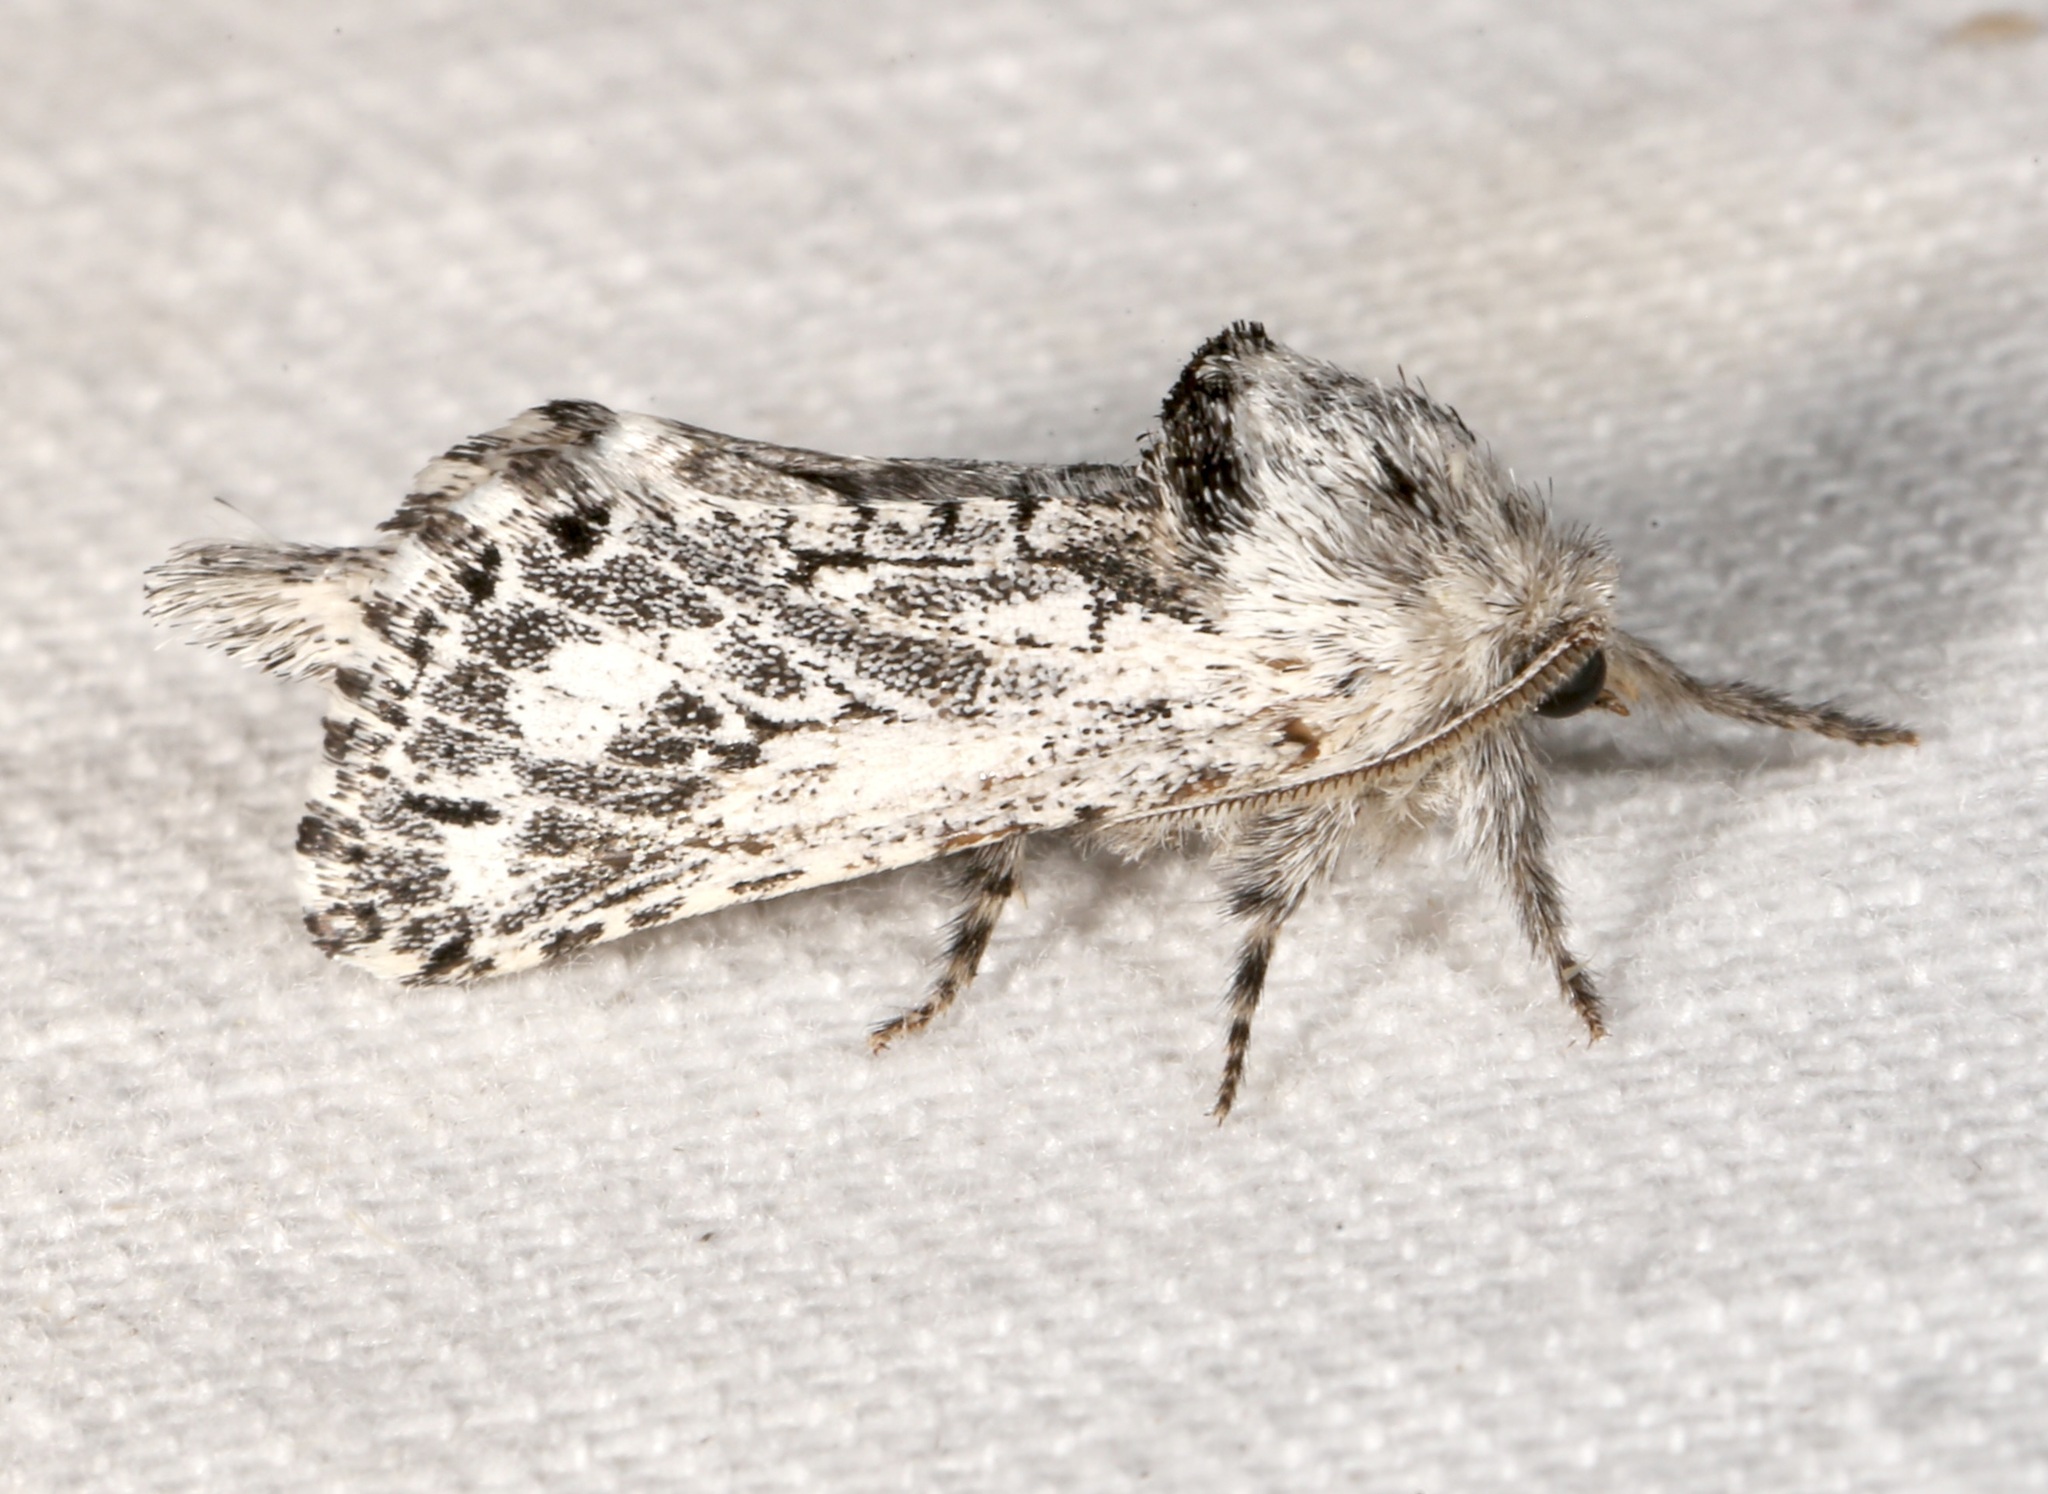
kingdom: Animalia
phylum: Arthropoda
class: Insecta
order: Lepidoptera
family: Cossidae
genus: Givira
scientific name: Givira cleopatra
